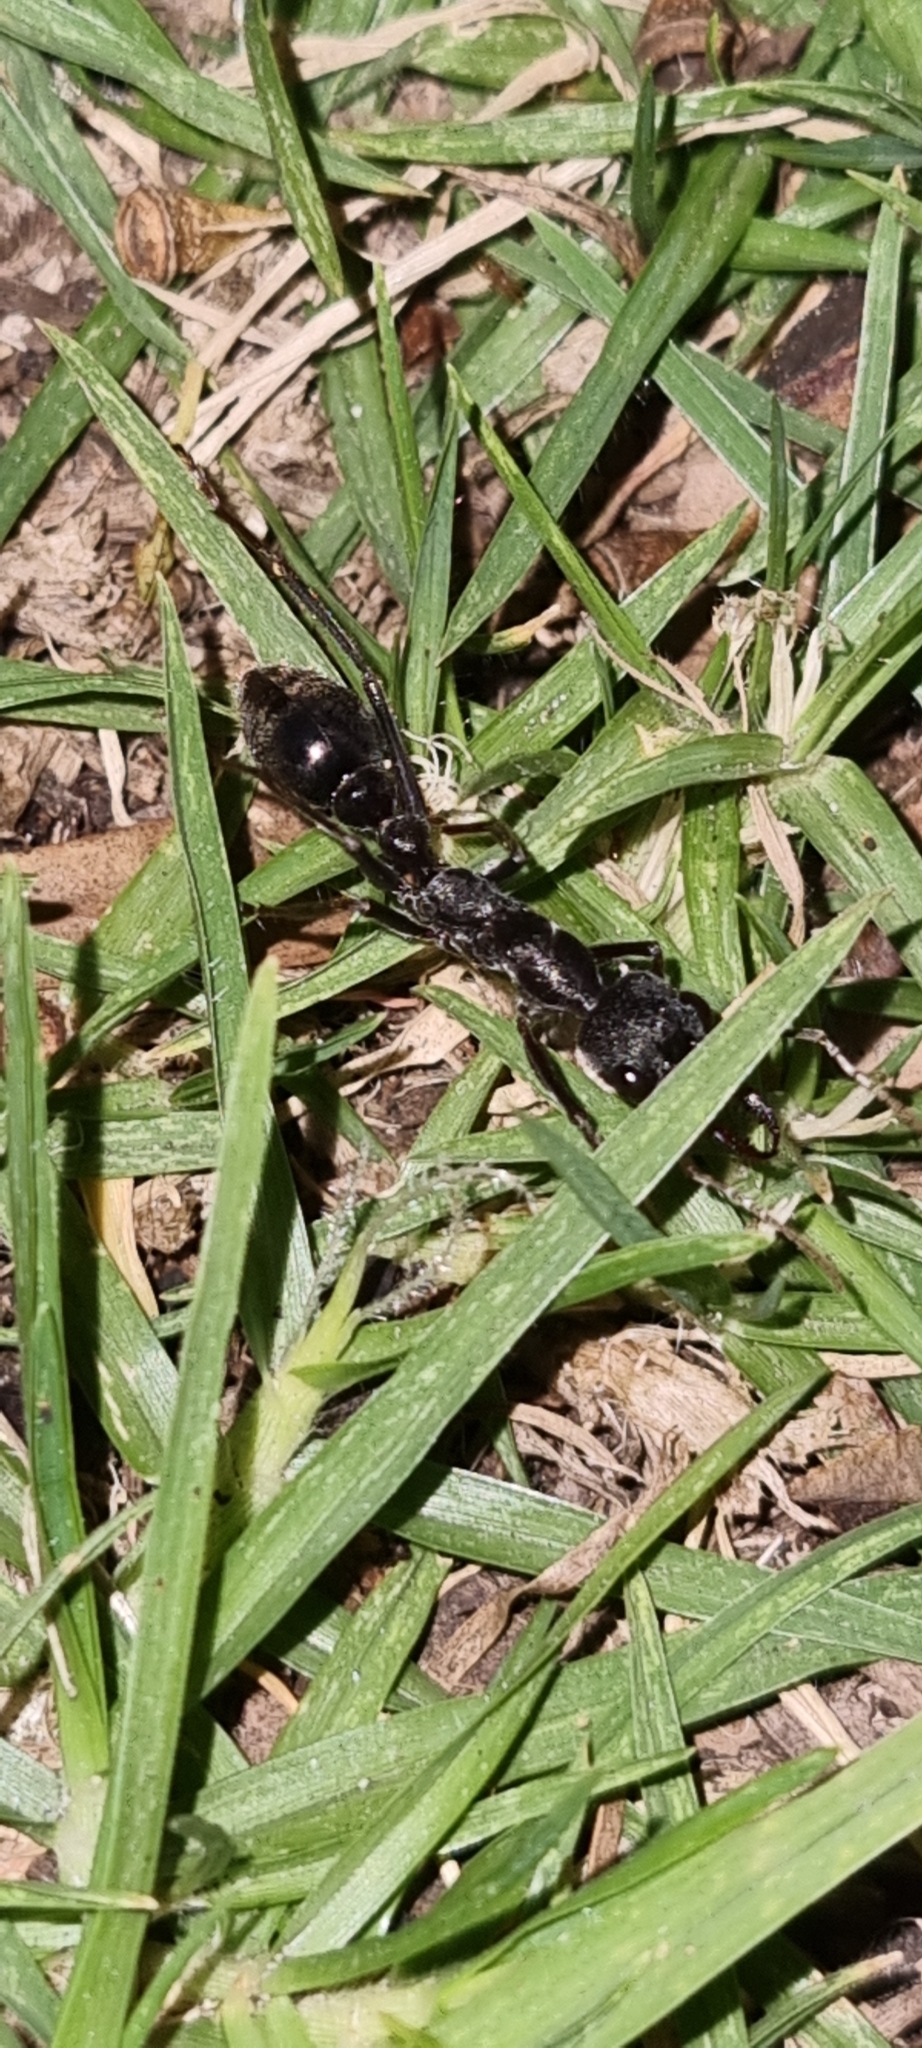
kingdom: Animalia
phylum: Arthropoda
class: Insecta
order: Hymenoptera
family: Formicidae
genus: Myrmecia
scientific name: Myrmecia pyriformis
